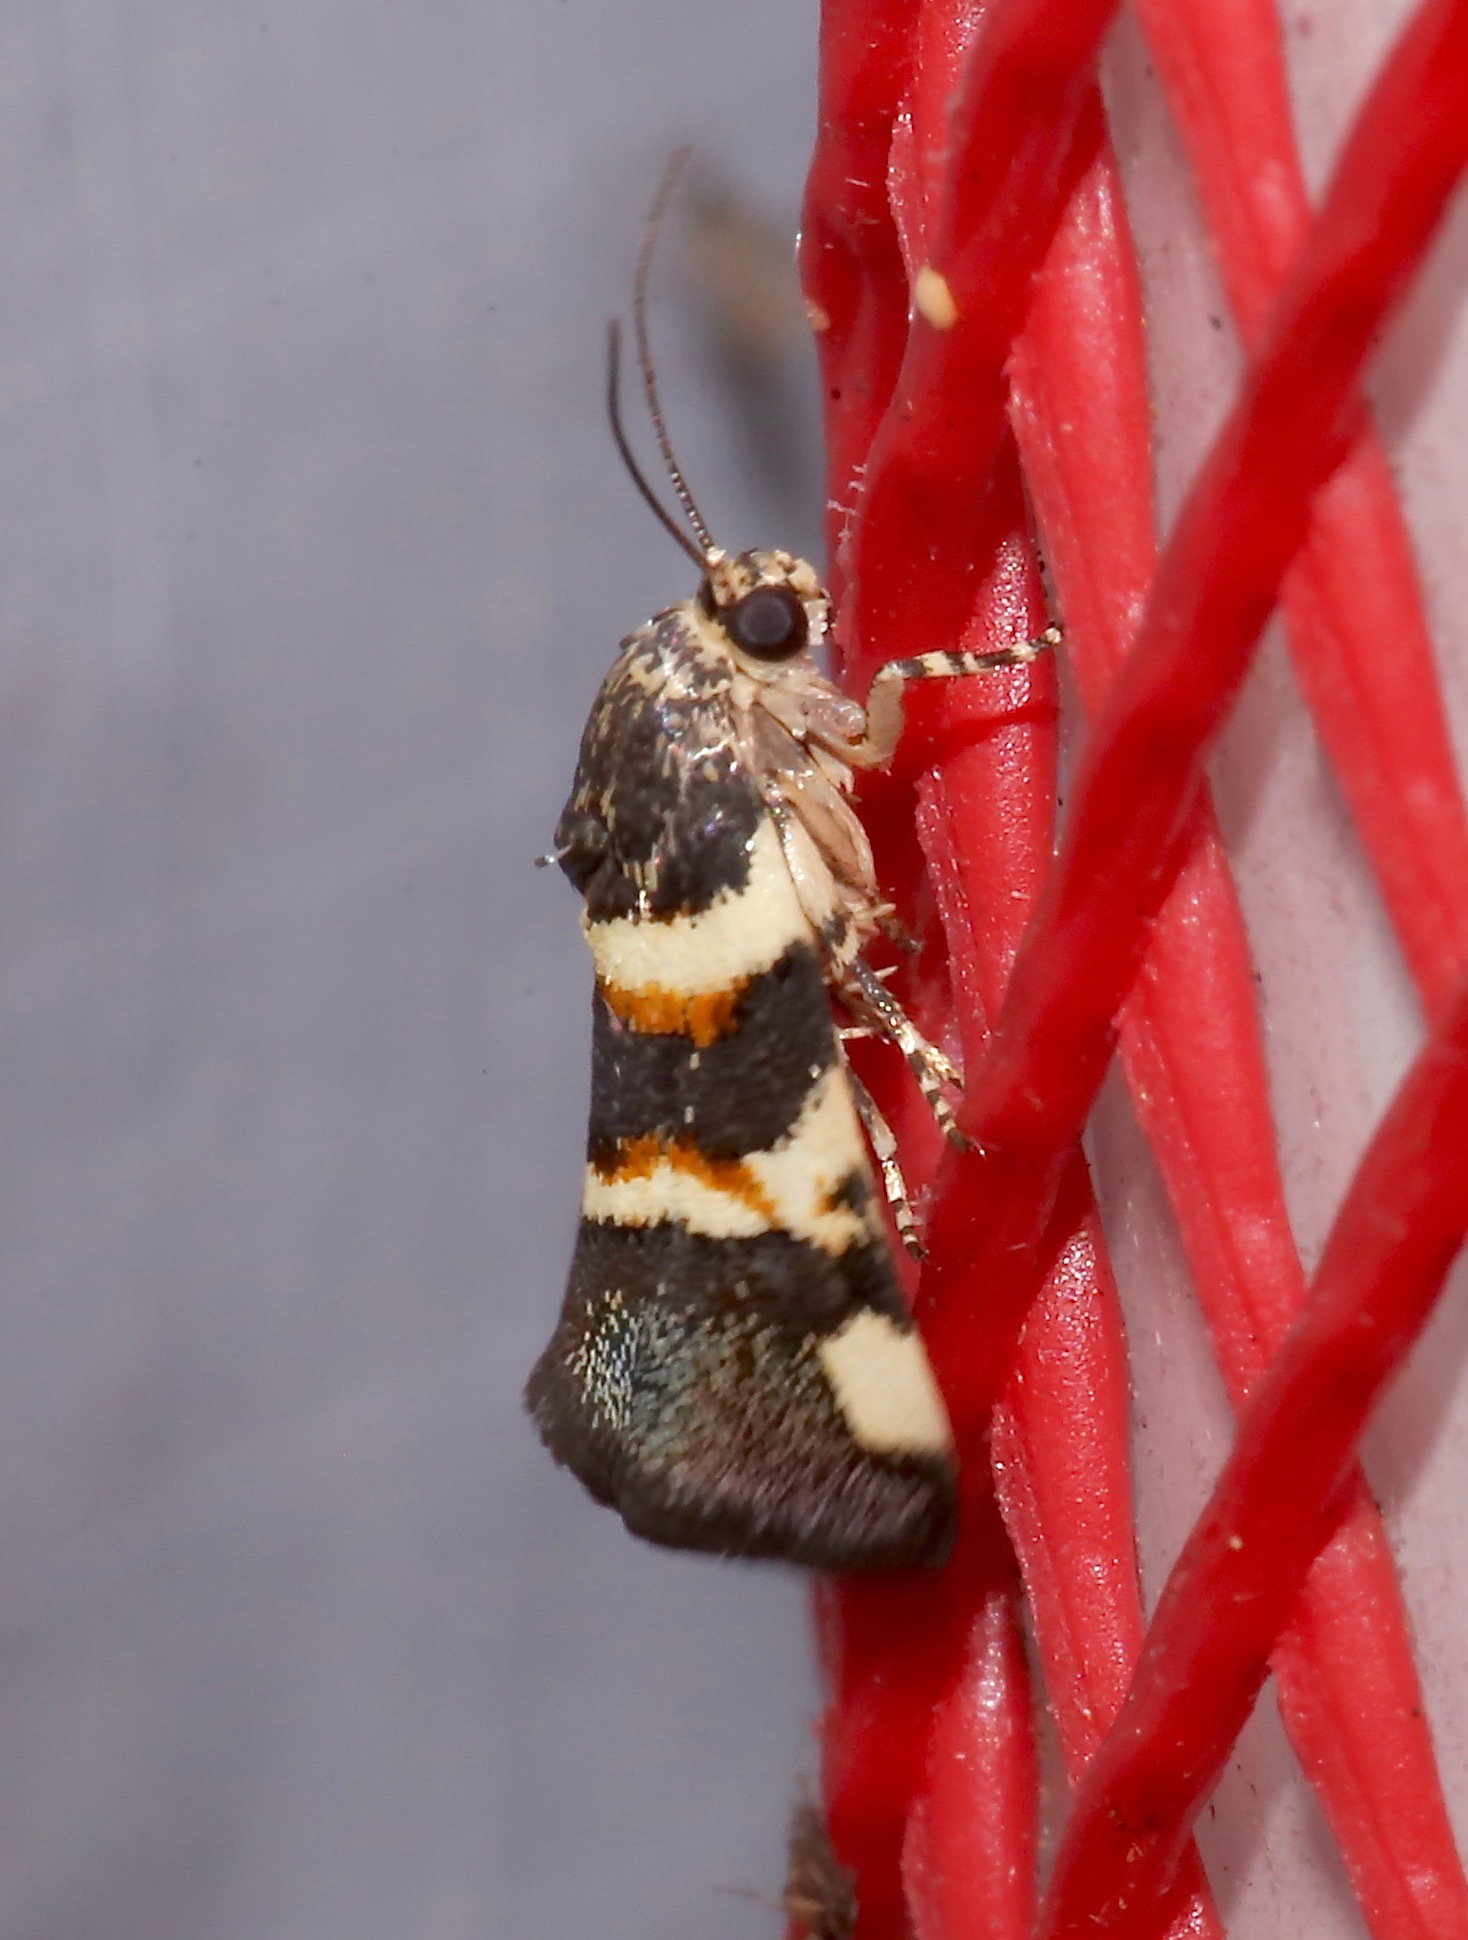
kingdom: Animalia
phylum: Arthropoda
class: Insecta
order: Lepidoptera
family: Noctuidae
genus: Spragueia
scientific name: Spragueia funeralis
